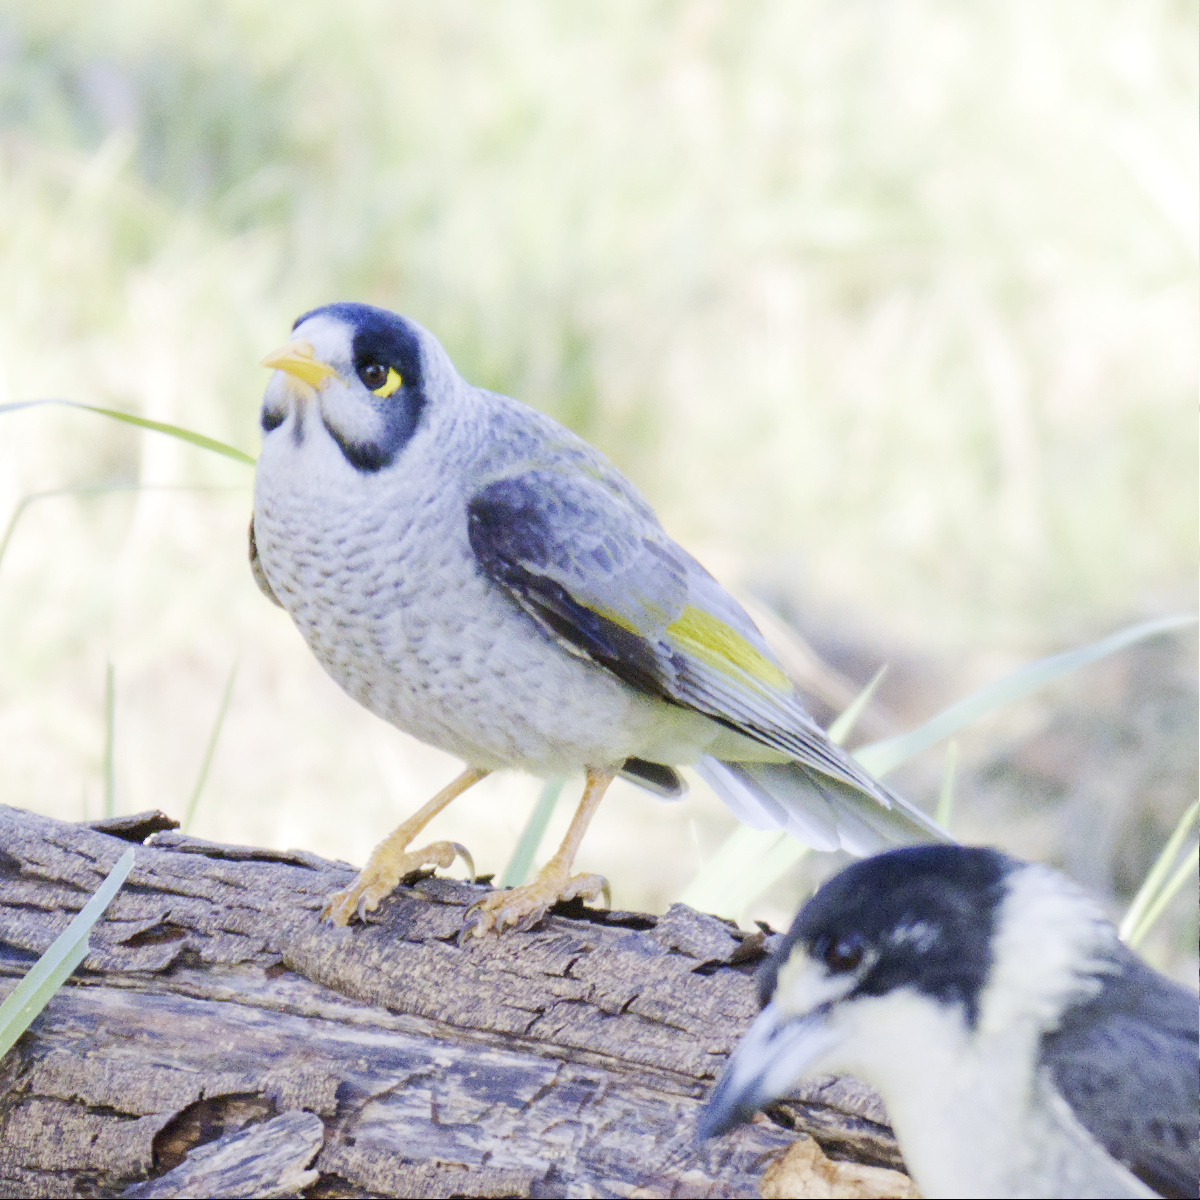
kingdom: Animalia
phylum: Chordata
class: Aves
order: Passeriformes
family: Meliphagidae
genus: Manorina
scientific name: Manorina melanocephala
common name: Noisy miner
